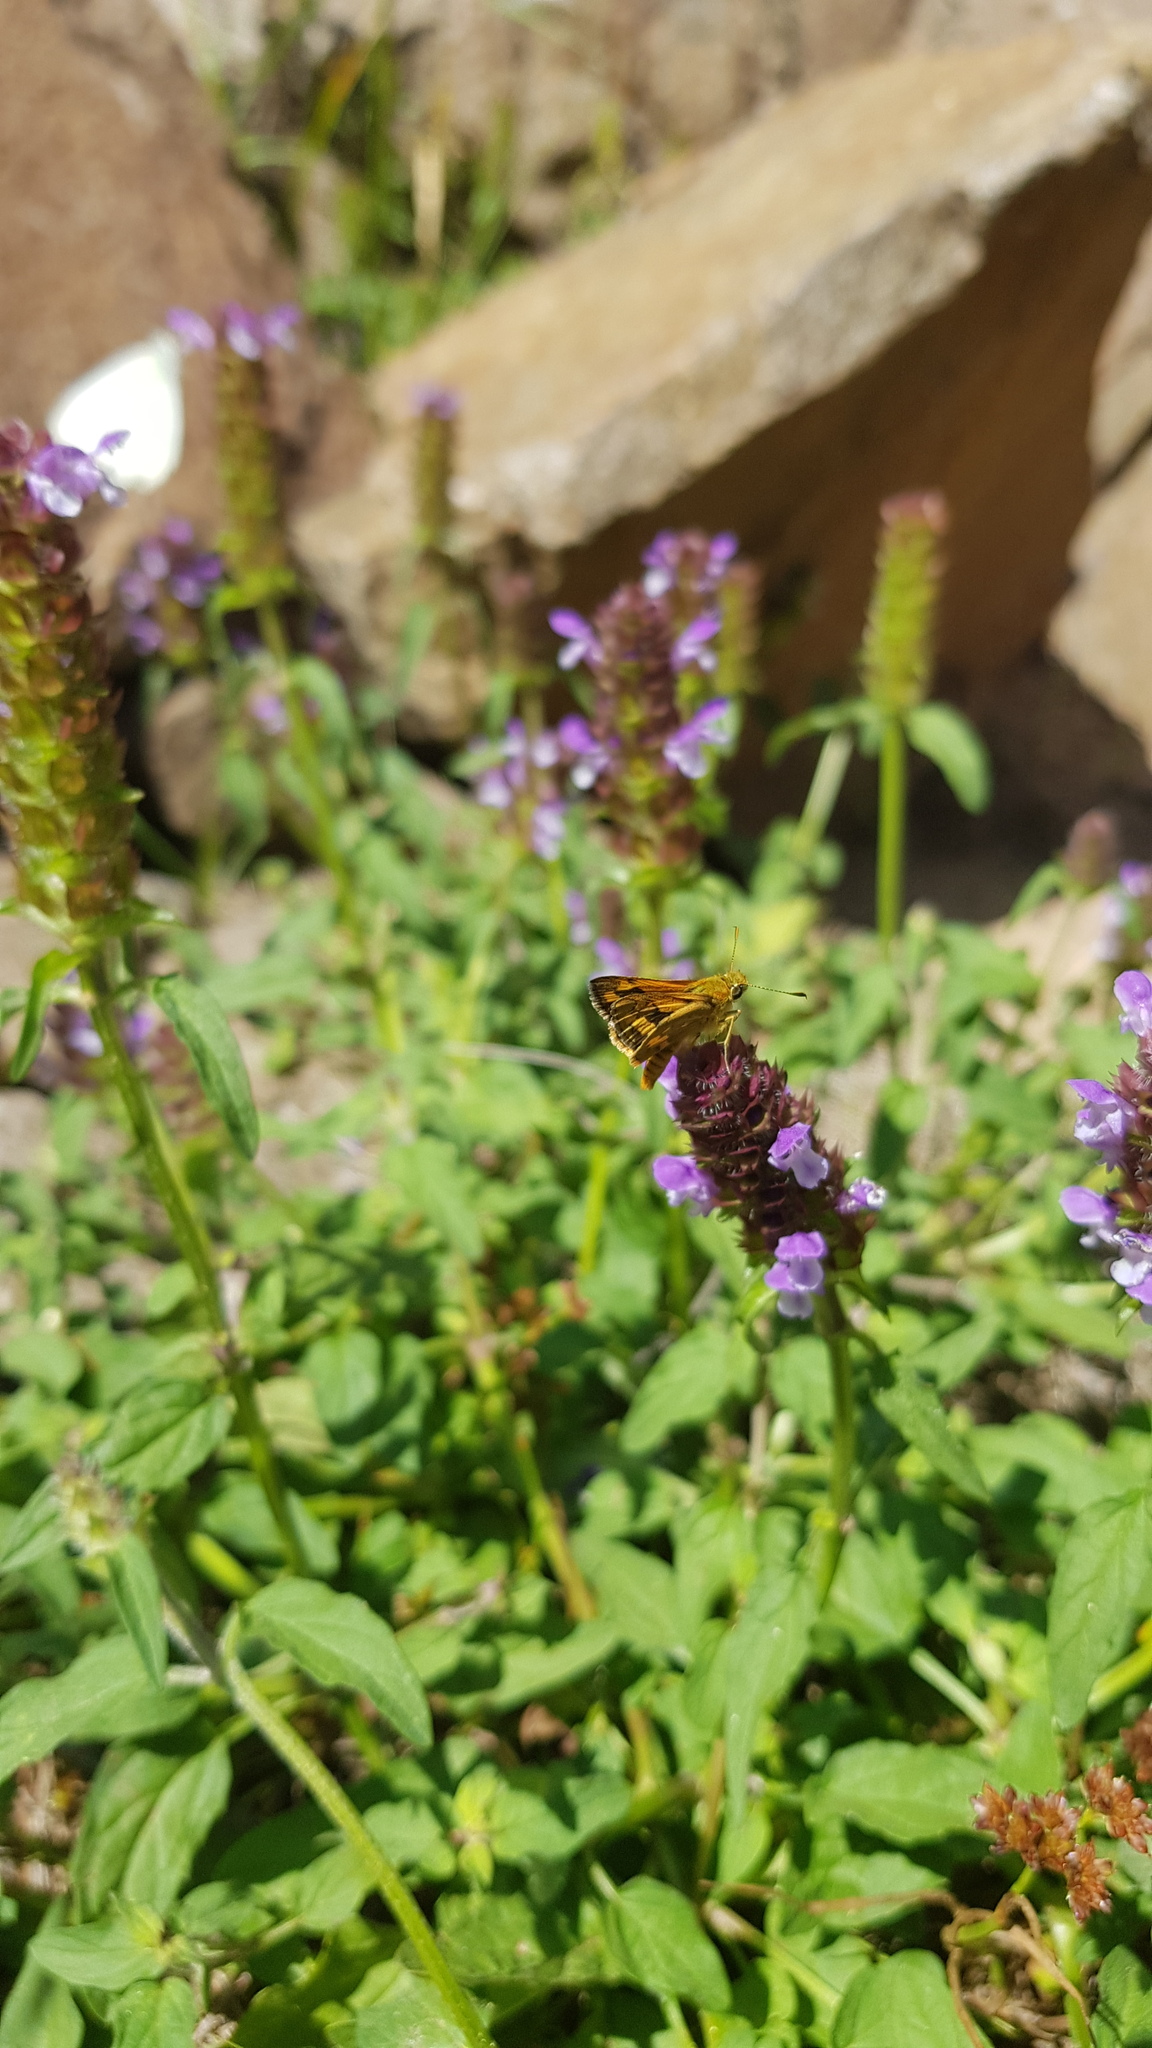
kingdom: Animalia
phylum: Arthropoda
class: Insecta
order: Lepidoptera
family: Hesperiidae
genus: Ocybadistes
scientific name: Ocybadistes walkeri
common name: Yellow-banded dart
